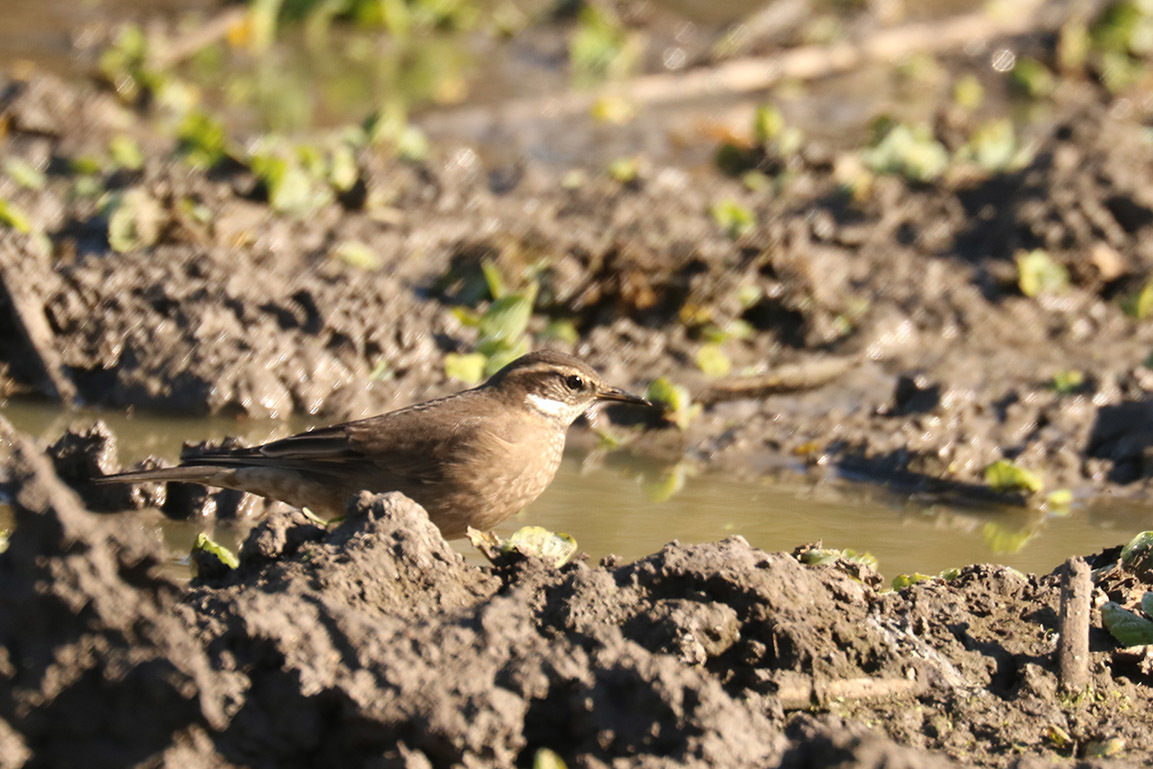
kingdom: Animalia
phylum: Chordata
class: Aves
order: Passeriformes
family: Furnariidae
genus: Cinclodes
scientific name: Cinclodes fuscus
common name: Buff-winged cinclodes
